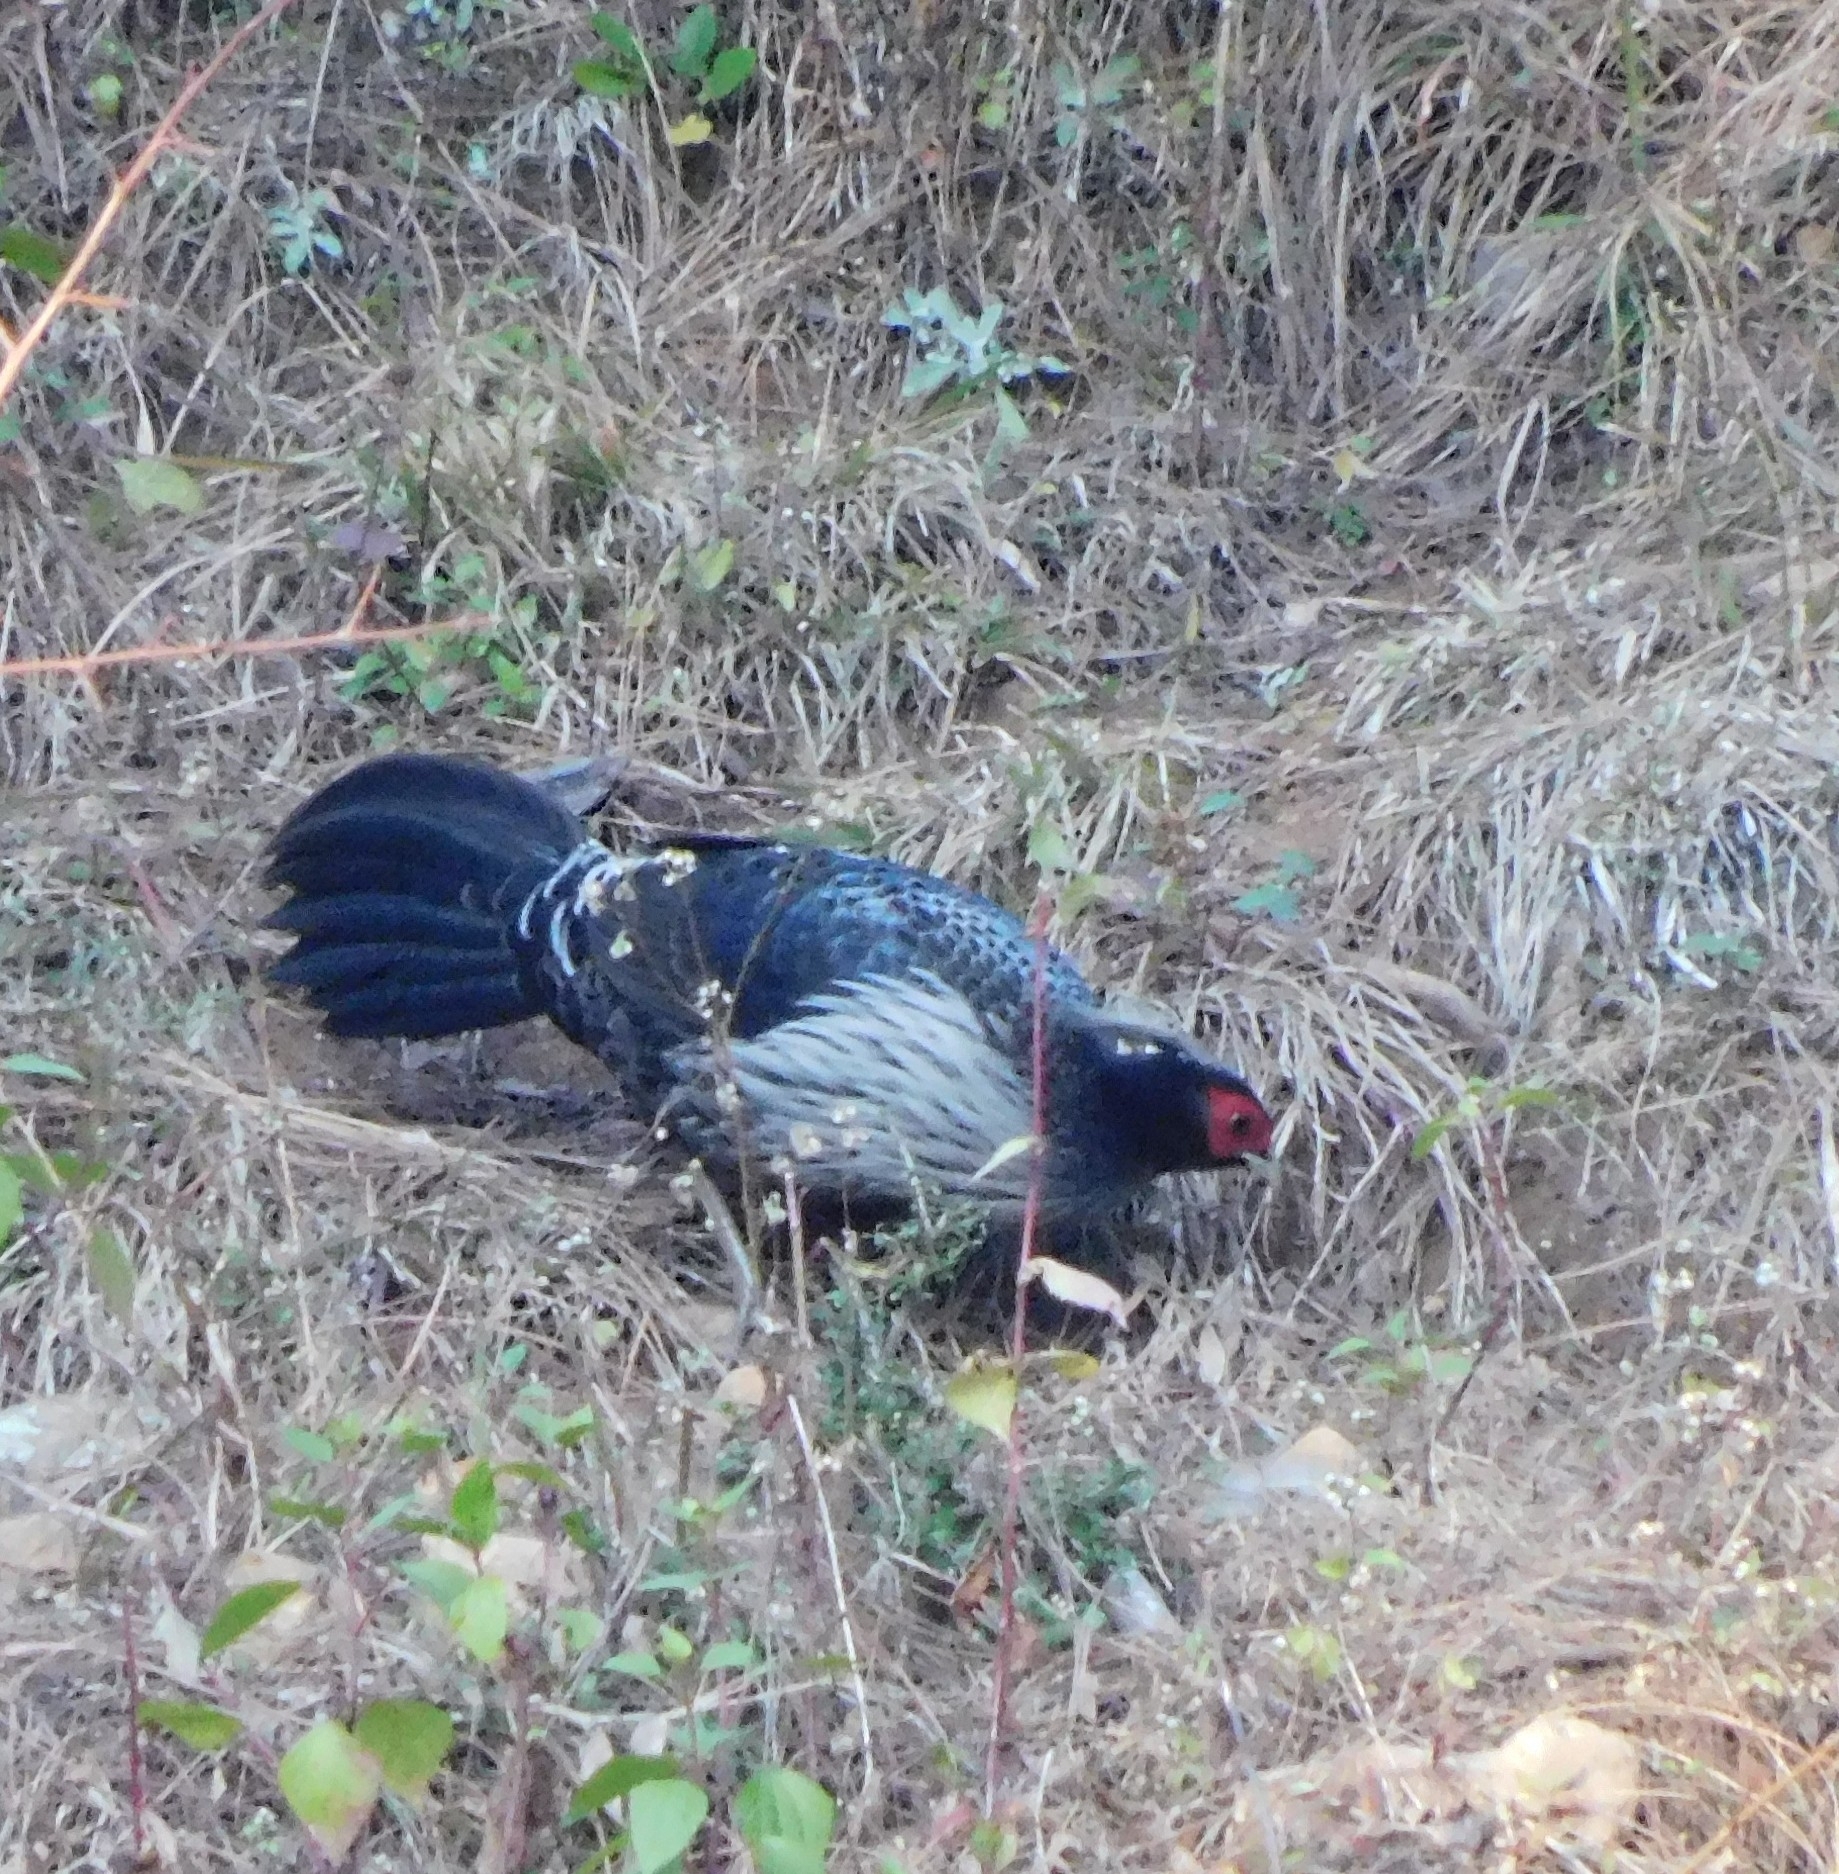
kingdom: Animalia
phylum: Chordata
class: Aves
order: Galliformes
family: Phasianidae
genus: Lophura
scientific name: Lophura leucomelanos
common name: Kalij pheasant
